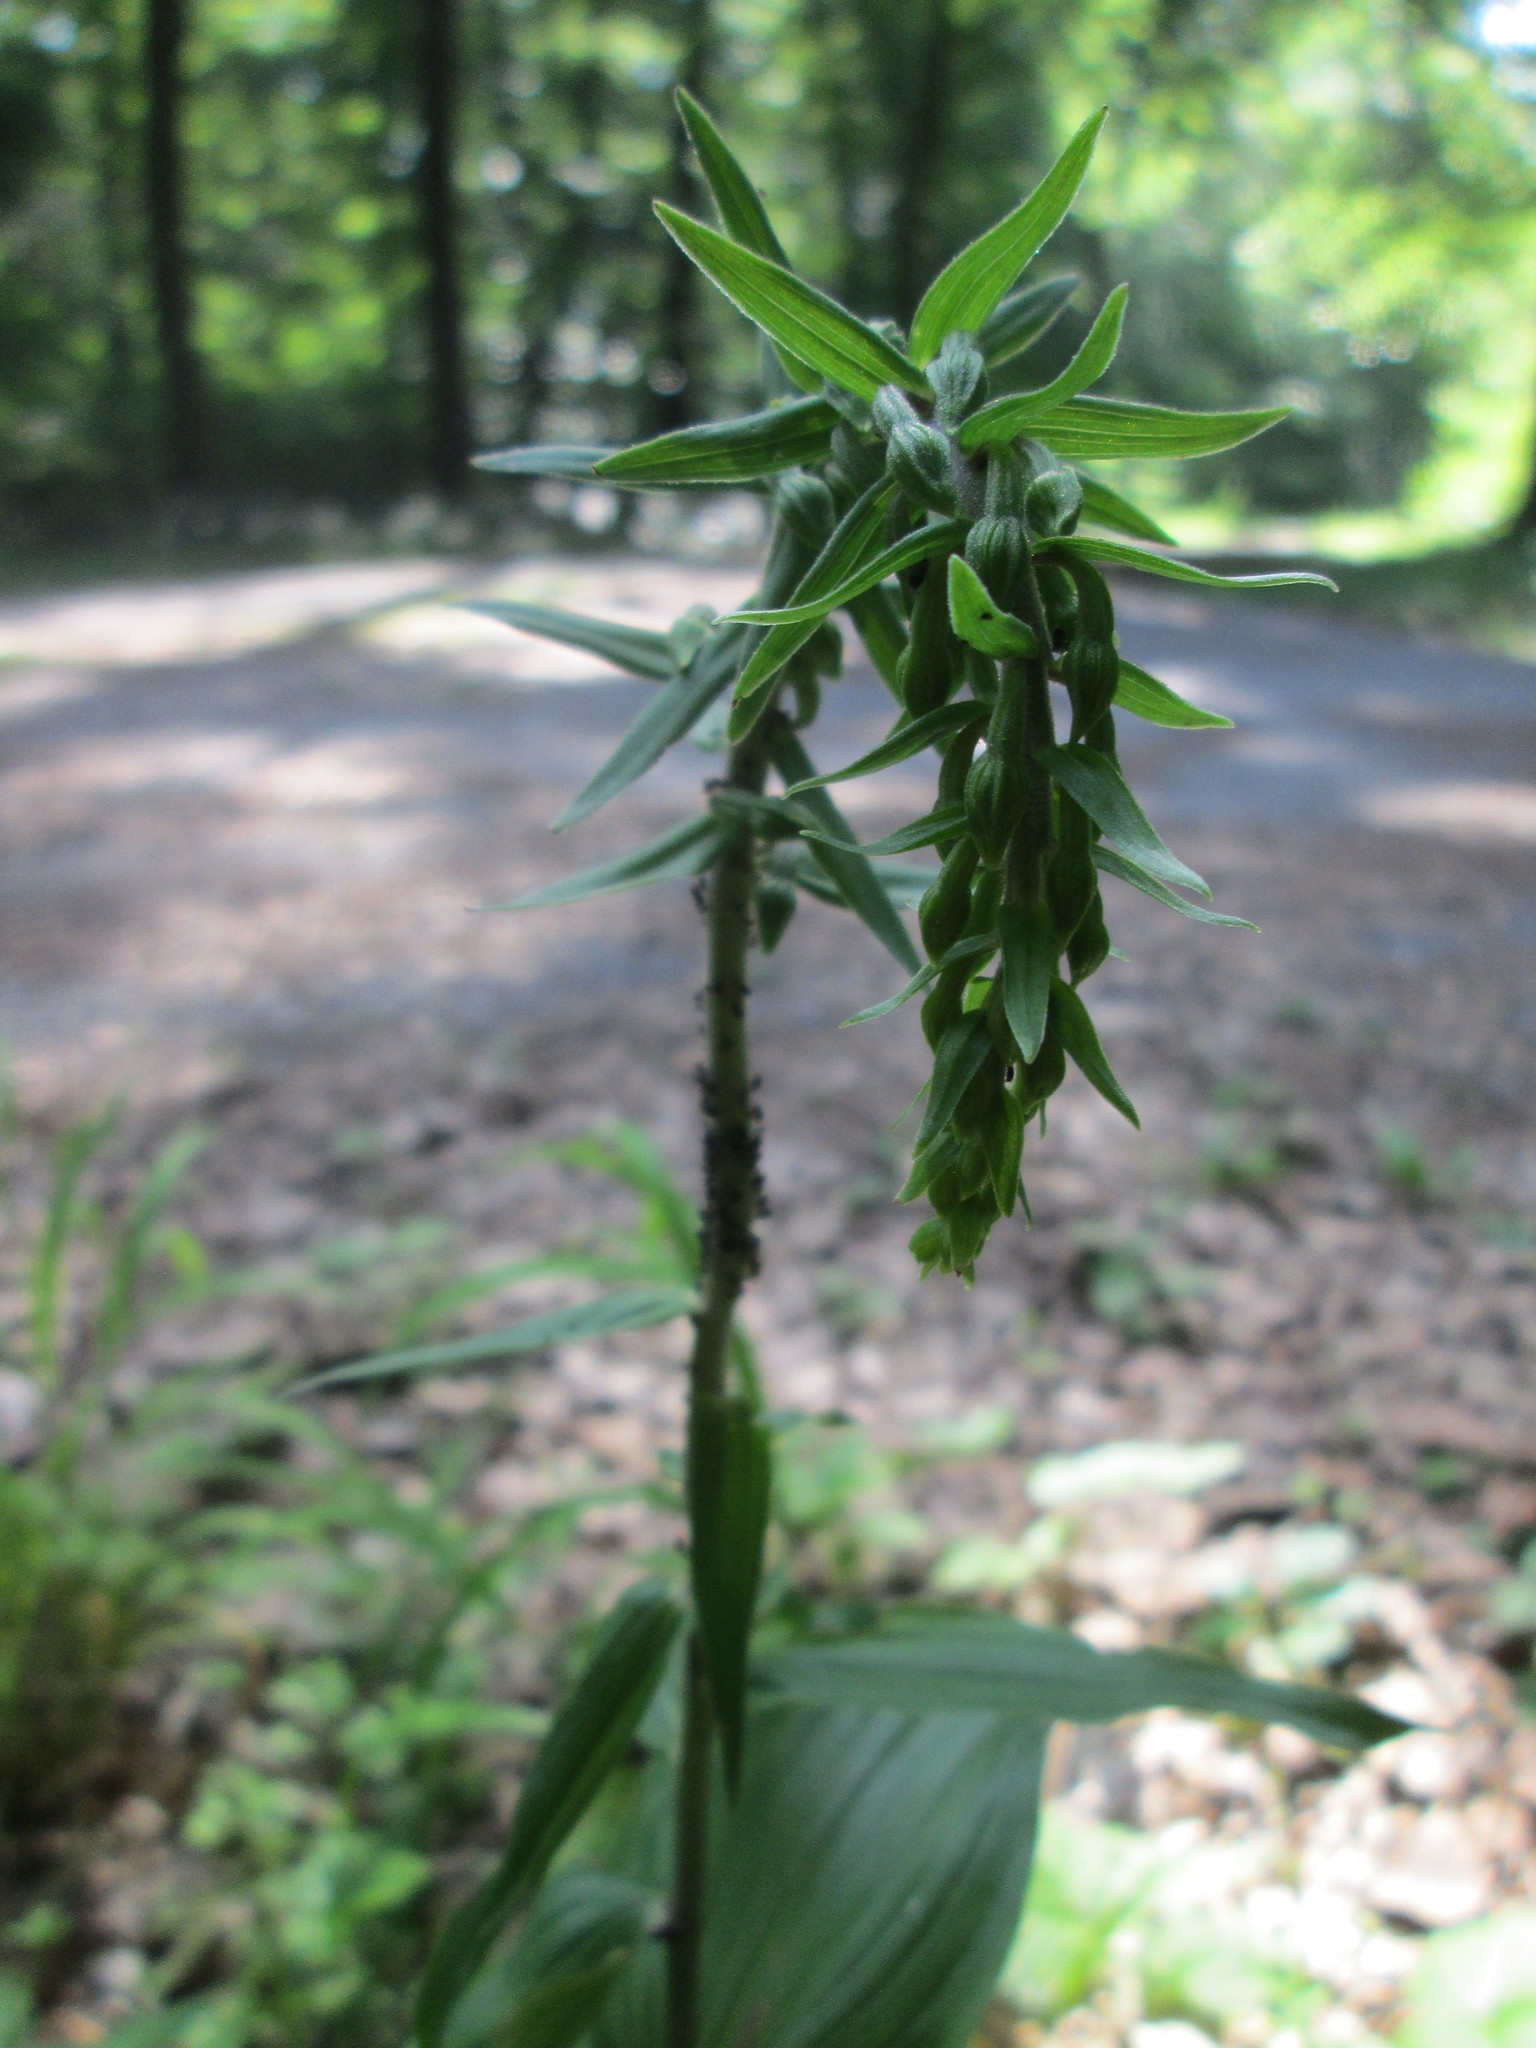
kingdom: Plantae
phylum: Tracheophyta
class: Liliopsida
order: Asparagales
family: Orchidaceae
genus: Epipactis
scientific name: Epipactis helleborine
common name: Broad-leaved helleborine
